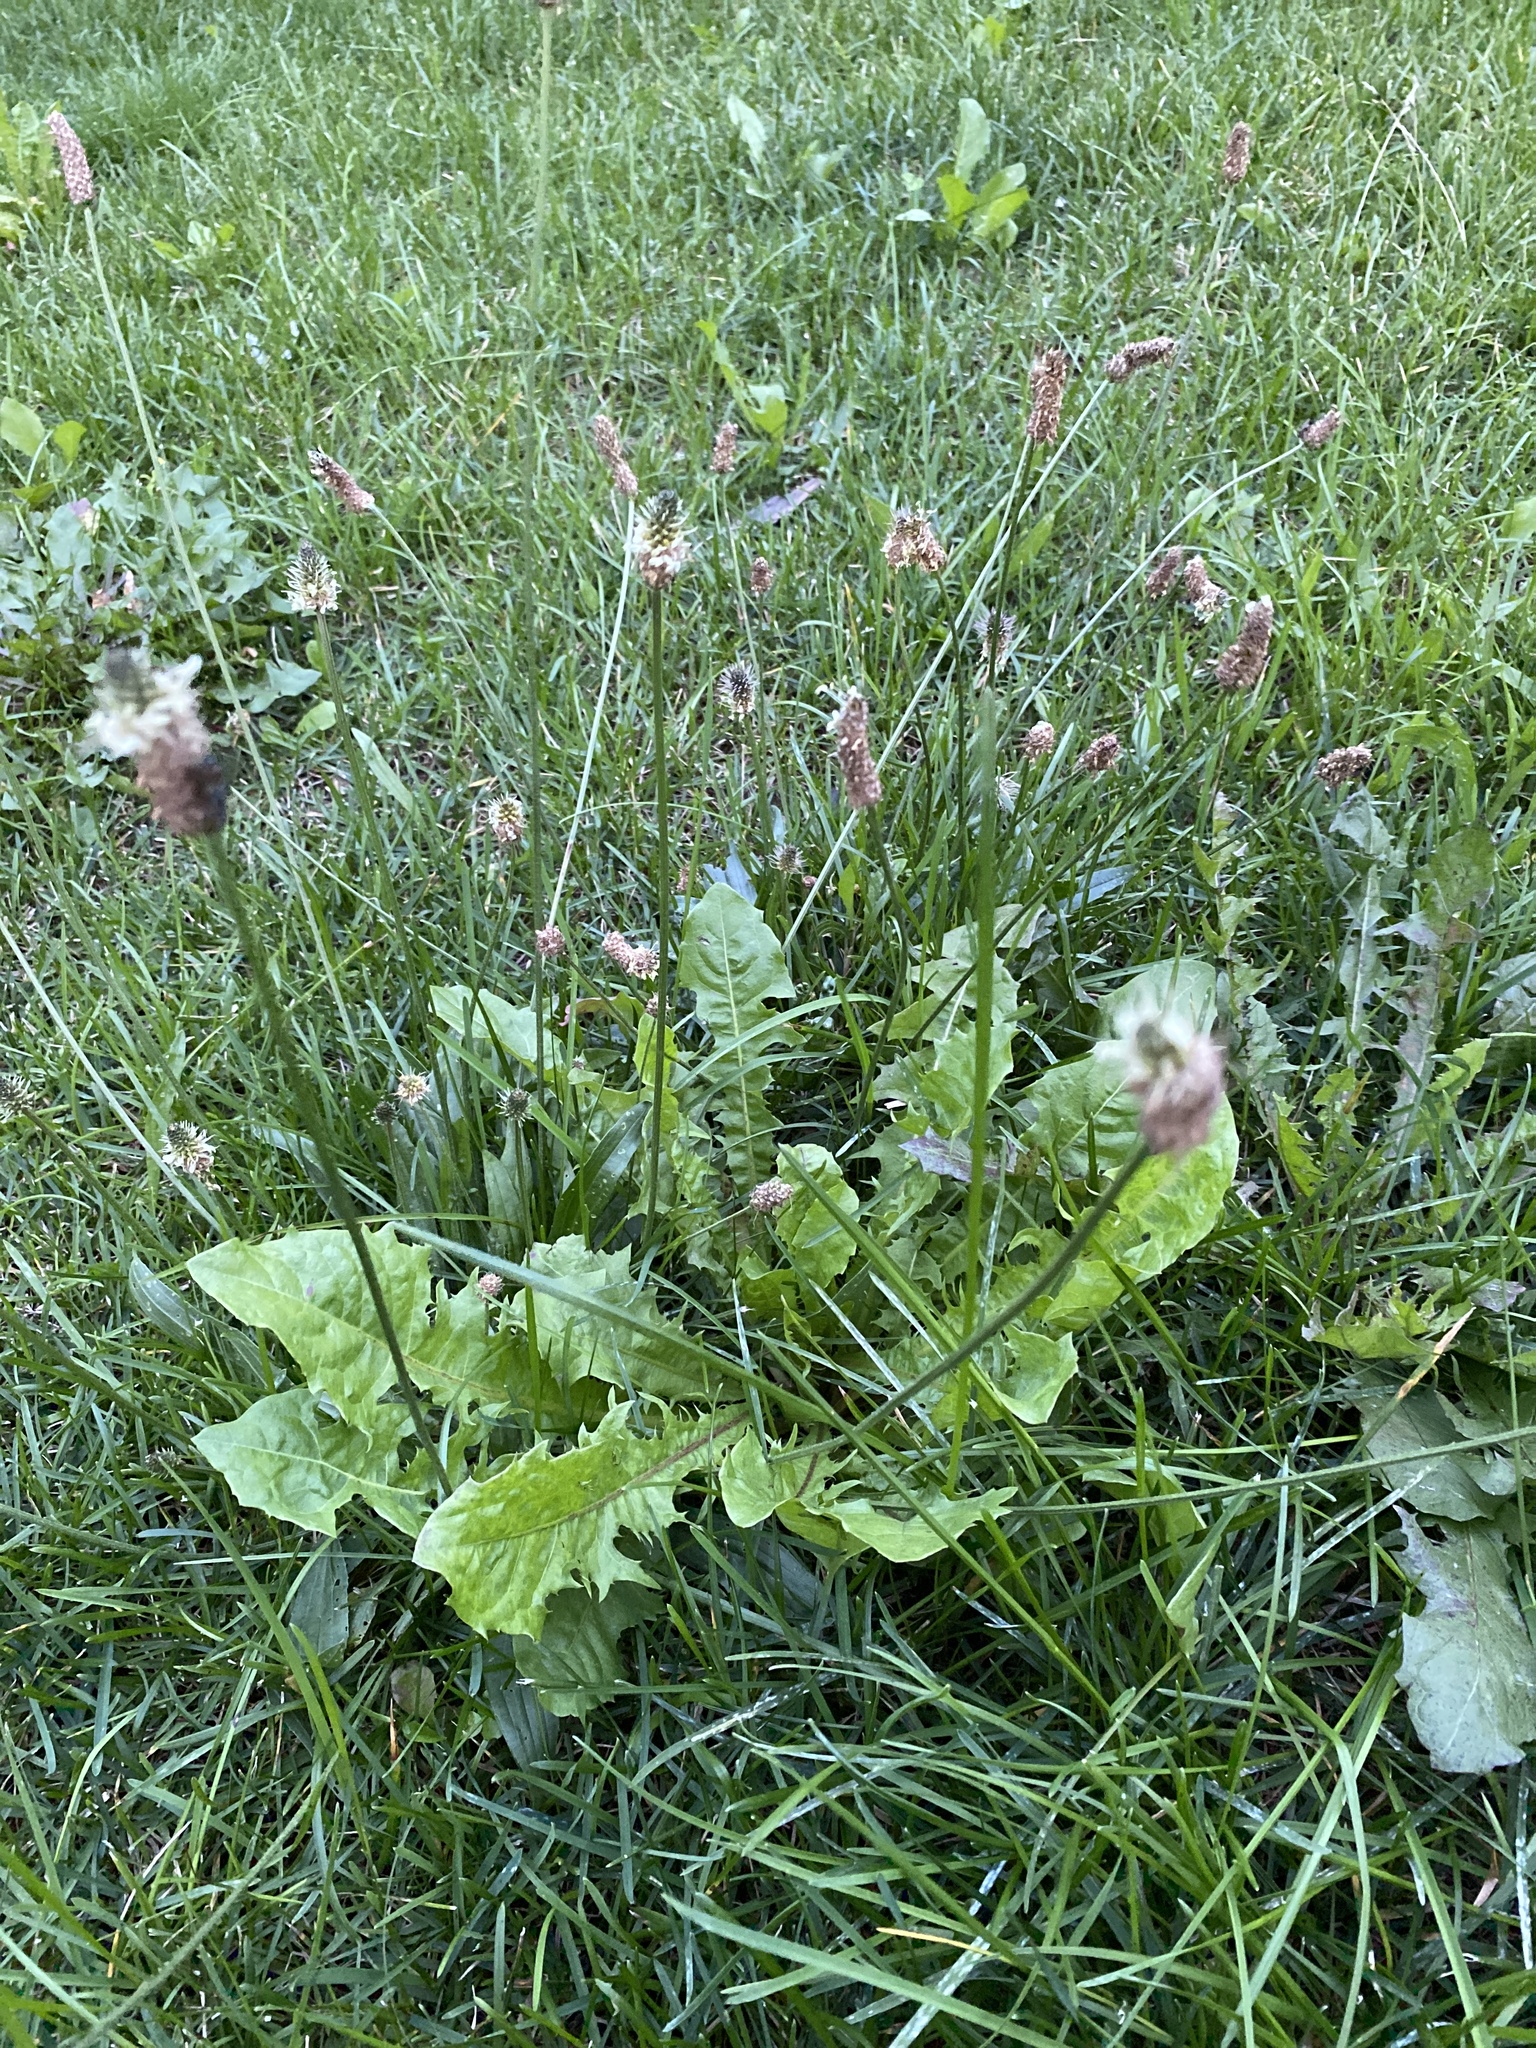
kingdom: Plantae
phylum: Tracheophyta
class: Magnoliopsida
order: Lamiales
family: Plantaginaceae
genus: Plantago
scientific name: Plantago lanceolata
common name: Ribwort plantain
